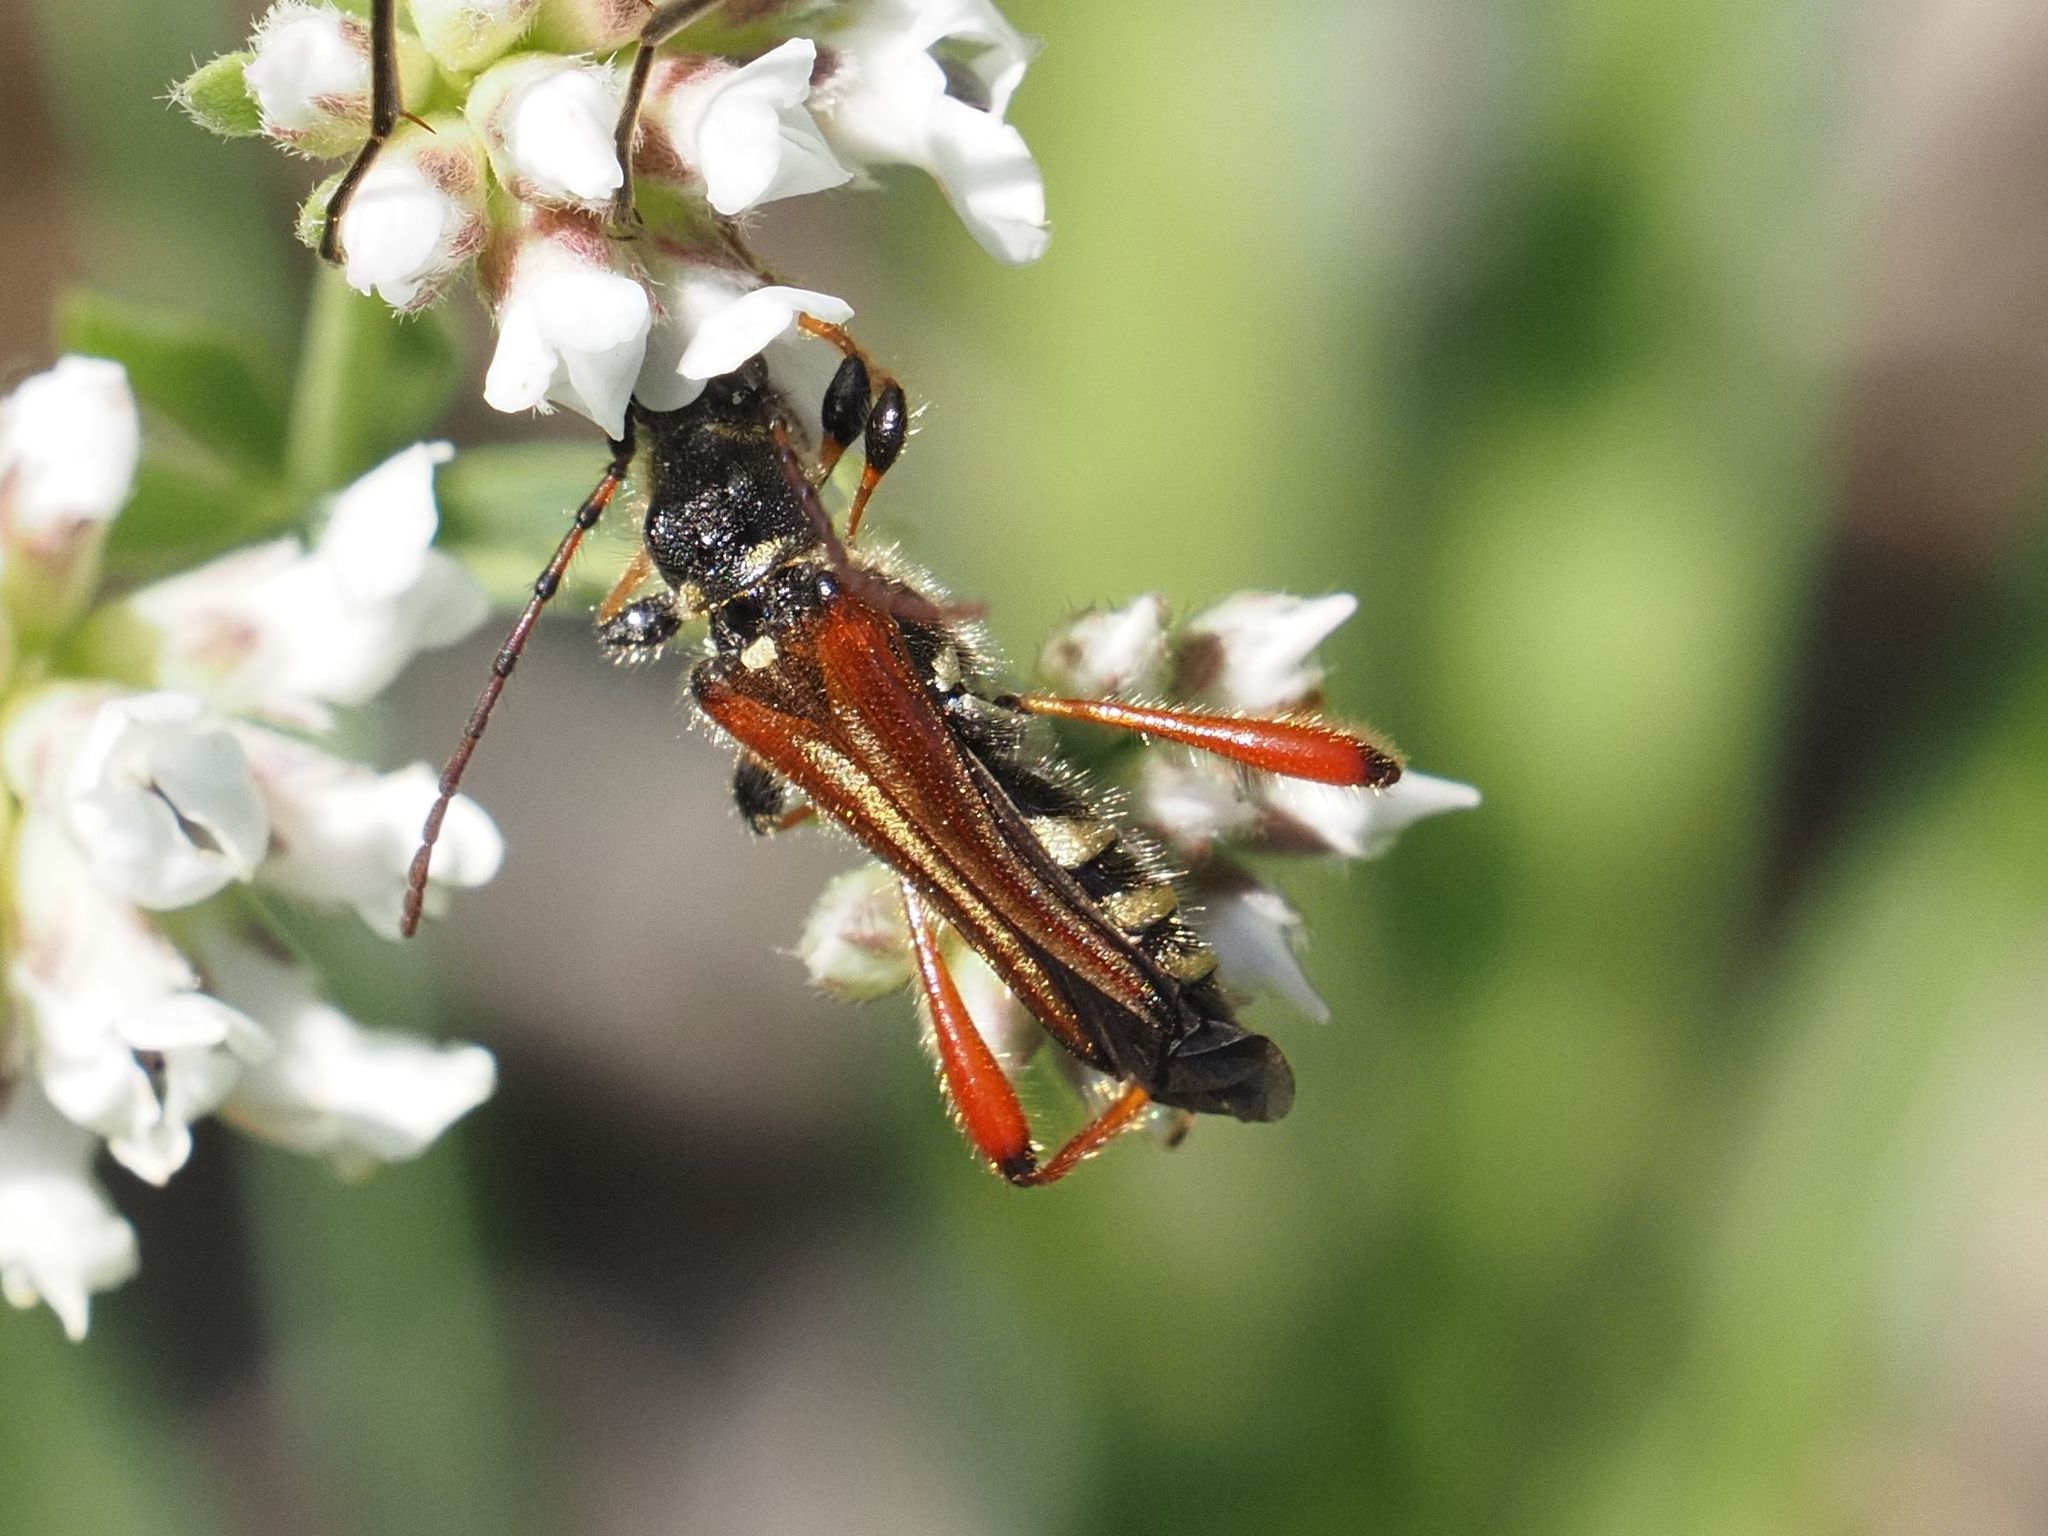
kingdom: Animalia
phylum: Arthropoda
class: Insecta
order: Coleoptera
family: Cerambycidae
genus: Stenopterus
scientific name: Stenopterus rufus
